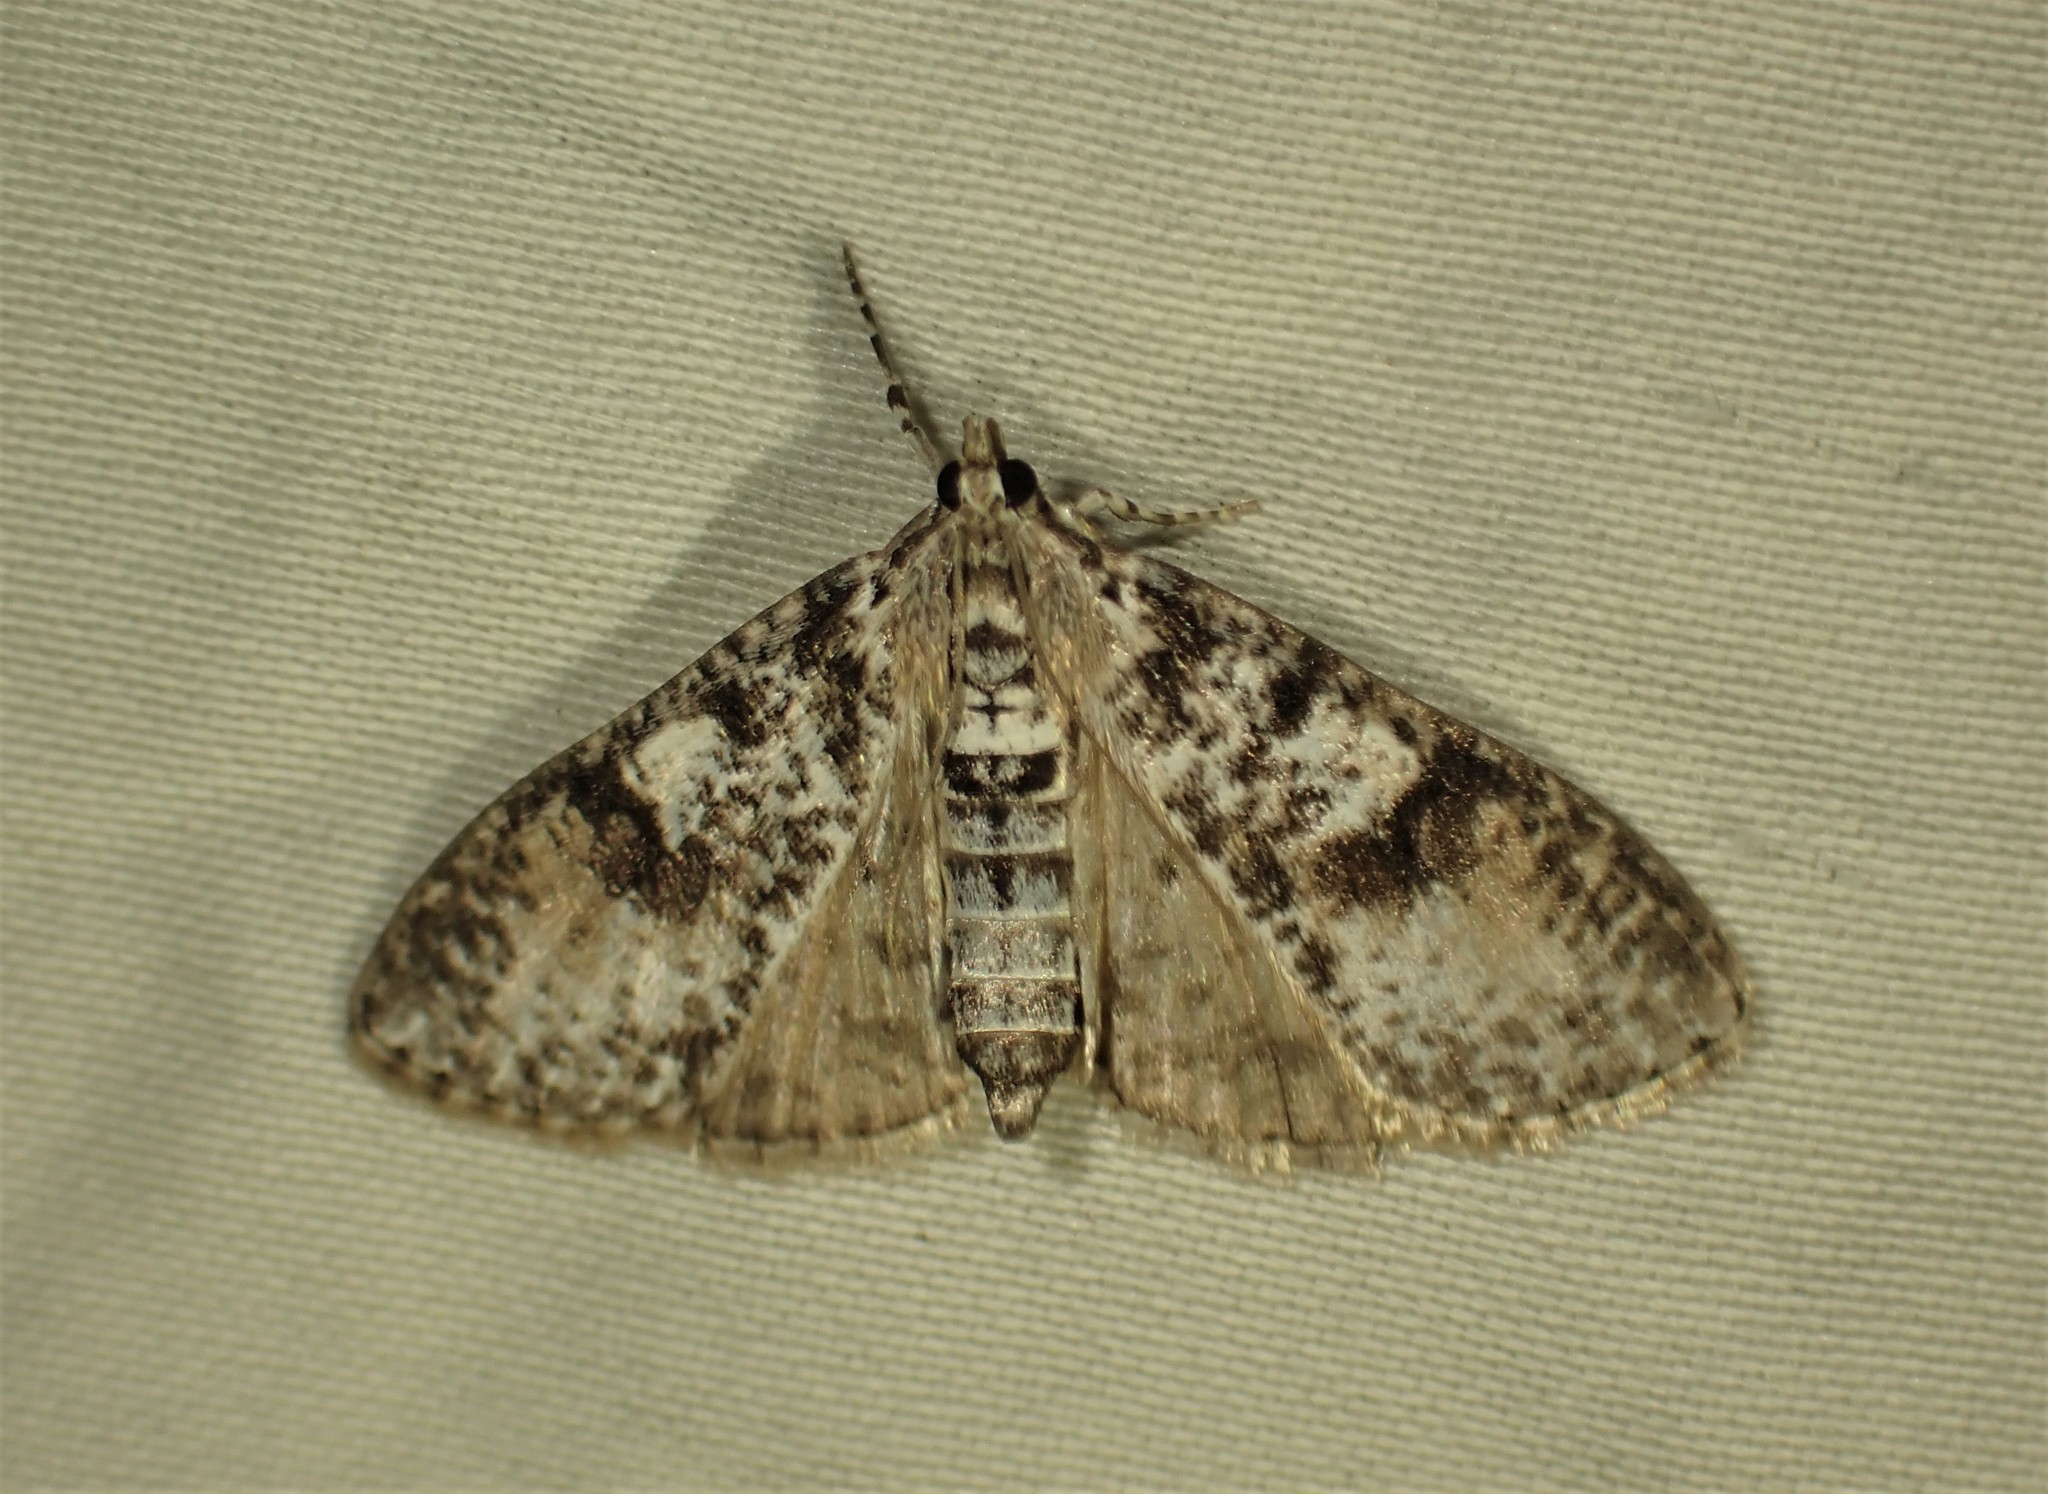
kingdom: Animalia
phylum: Arthropoda
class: Insecta
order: Lepidoptera
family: Crambidae
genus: Palpita
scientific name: Palpita magniferalis
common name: Splendid palpita moth
